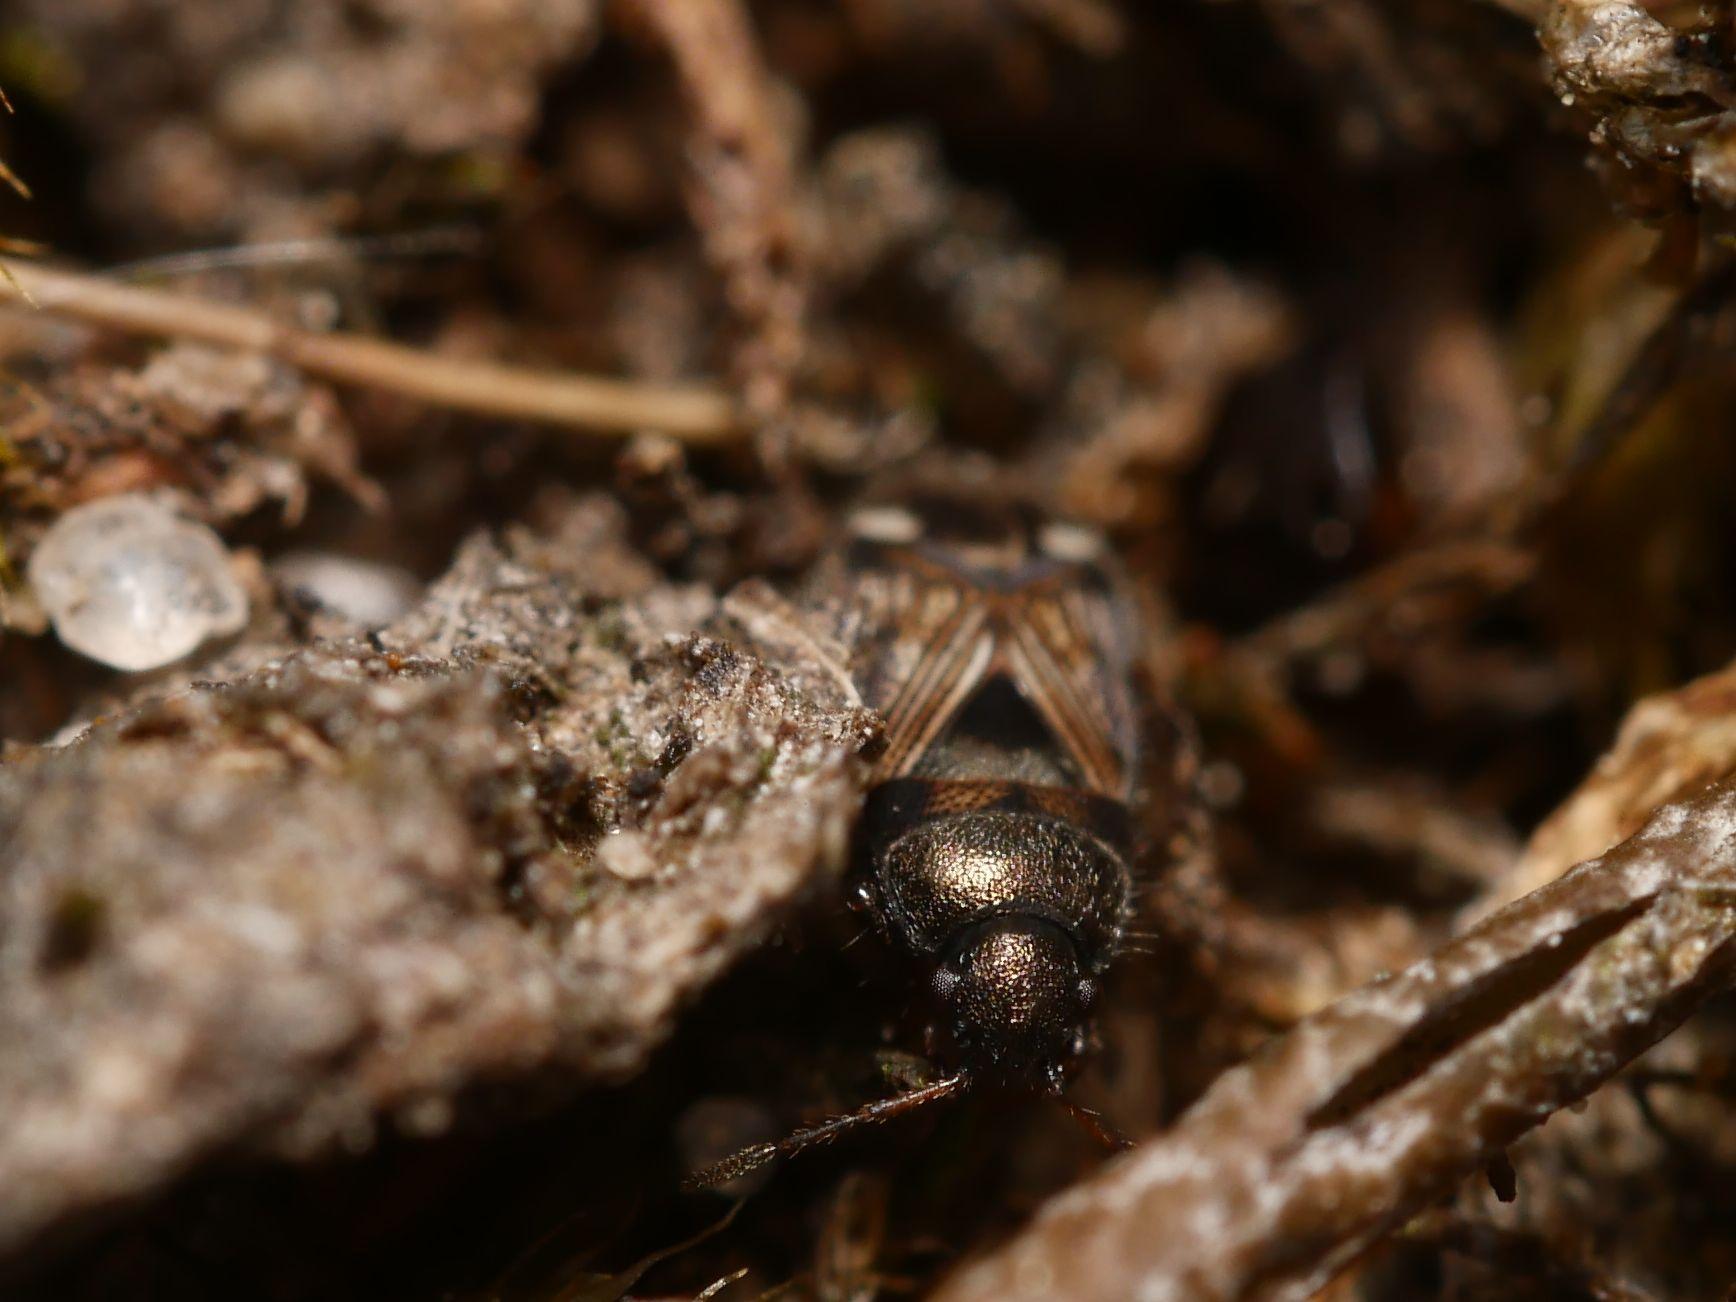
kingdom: Animalia
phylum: Arthropoda
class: Insecta
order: Hemiptera
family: Rhyparochromidae
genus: Pionosomus
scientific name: Pionosomus varius
